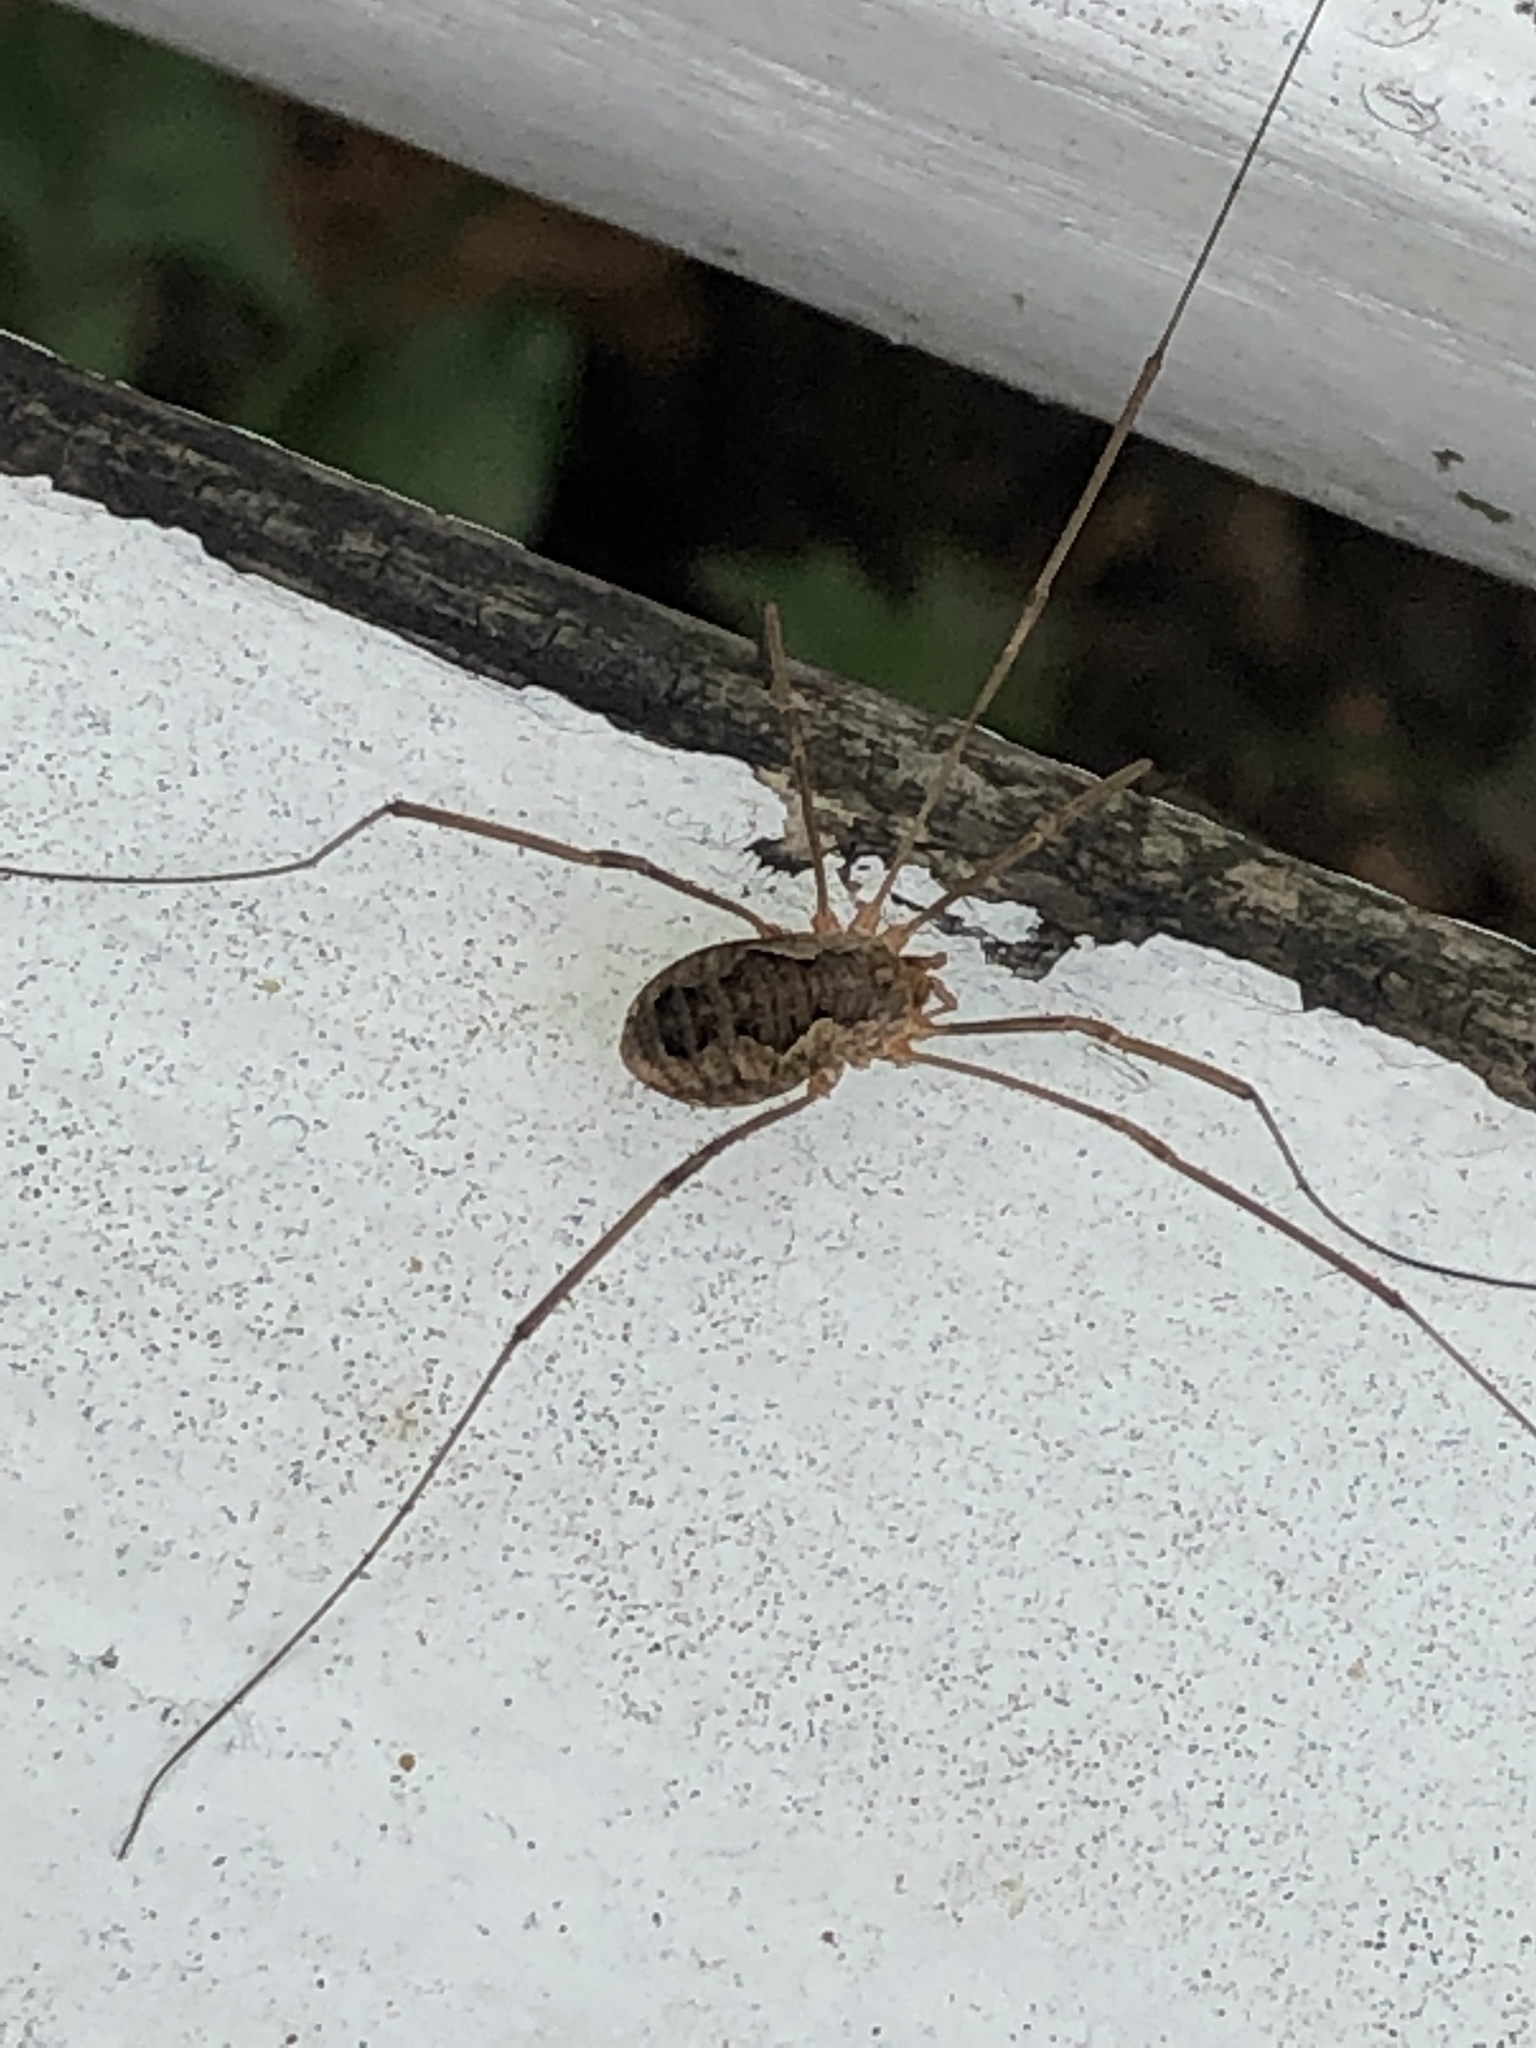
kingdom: Animalia
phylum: Arthropoda
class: Arachnida
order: Opiliones
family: Phalangiidae
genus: Phalangium
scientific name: Phalangium opilio
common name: Daddy longleg
